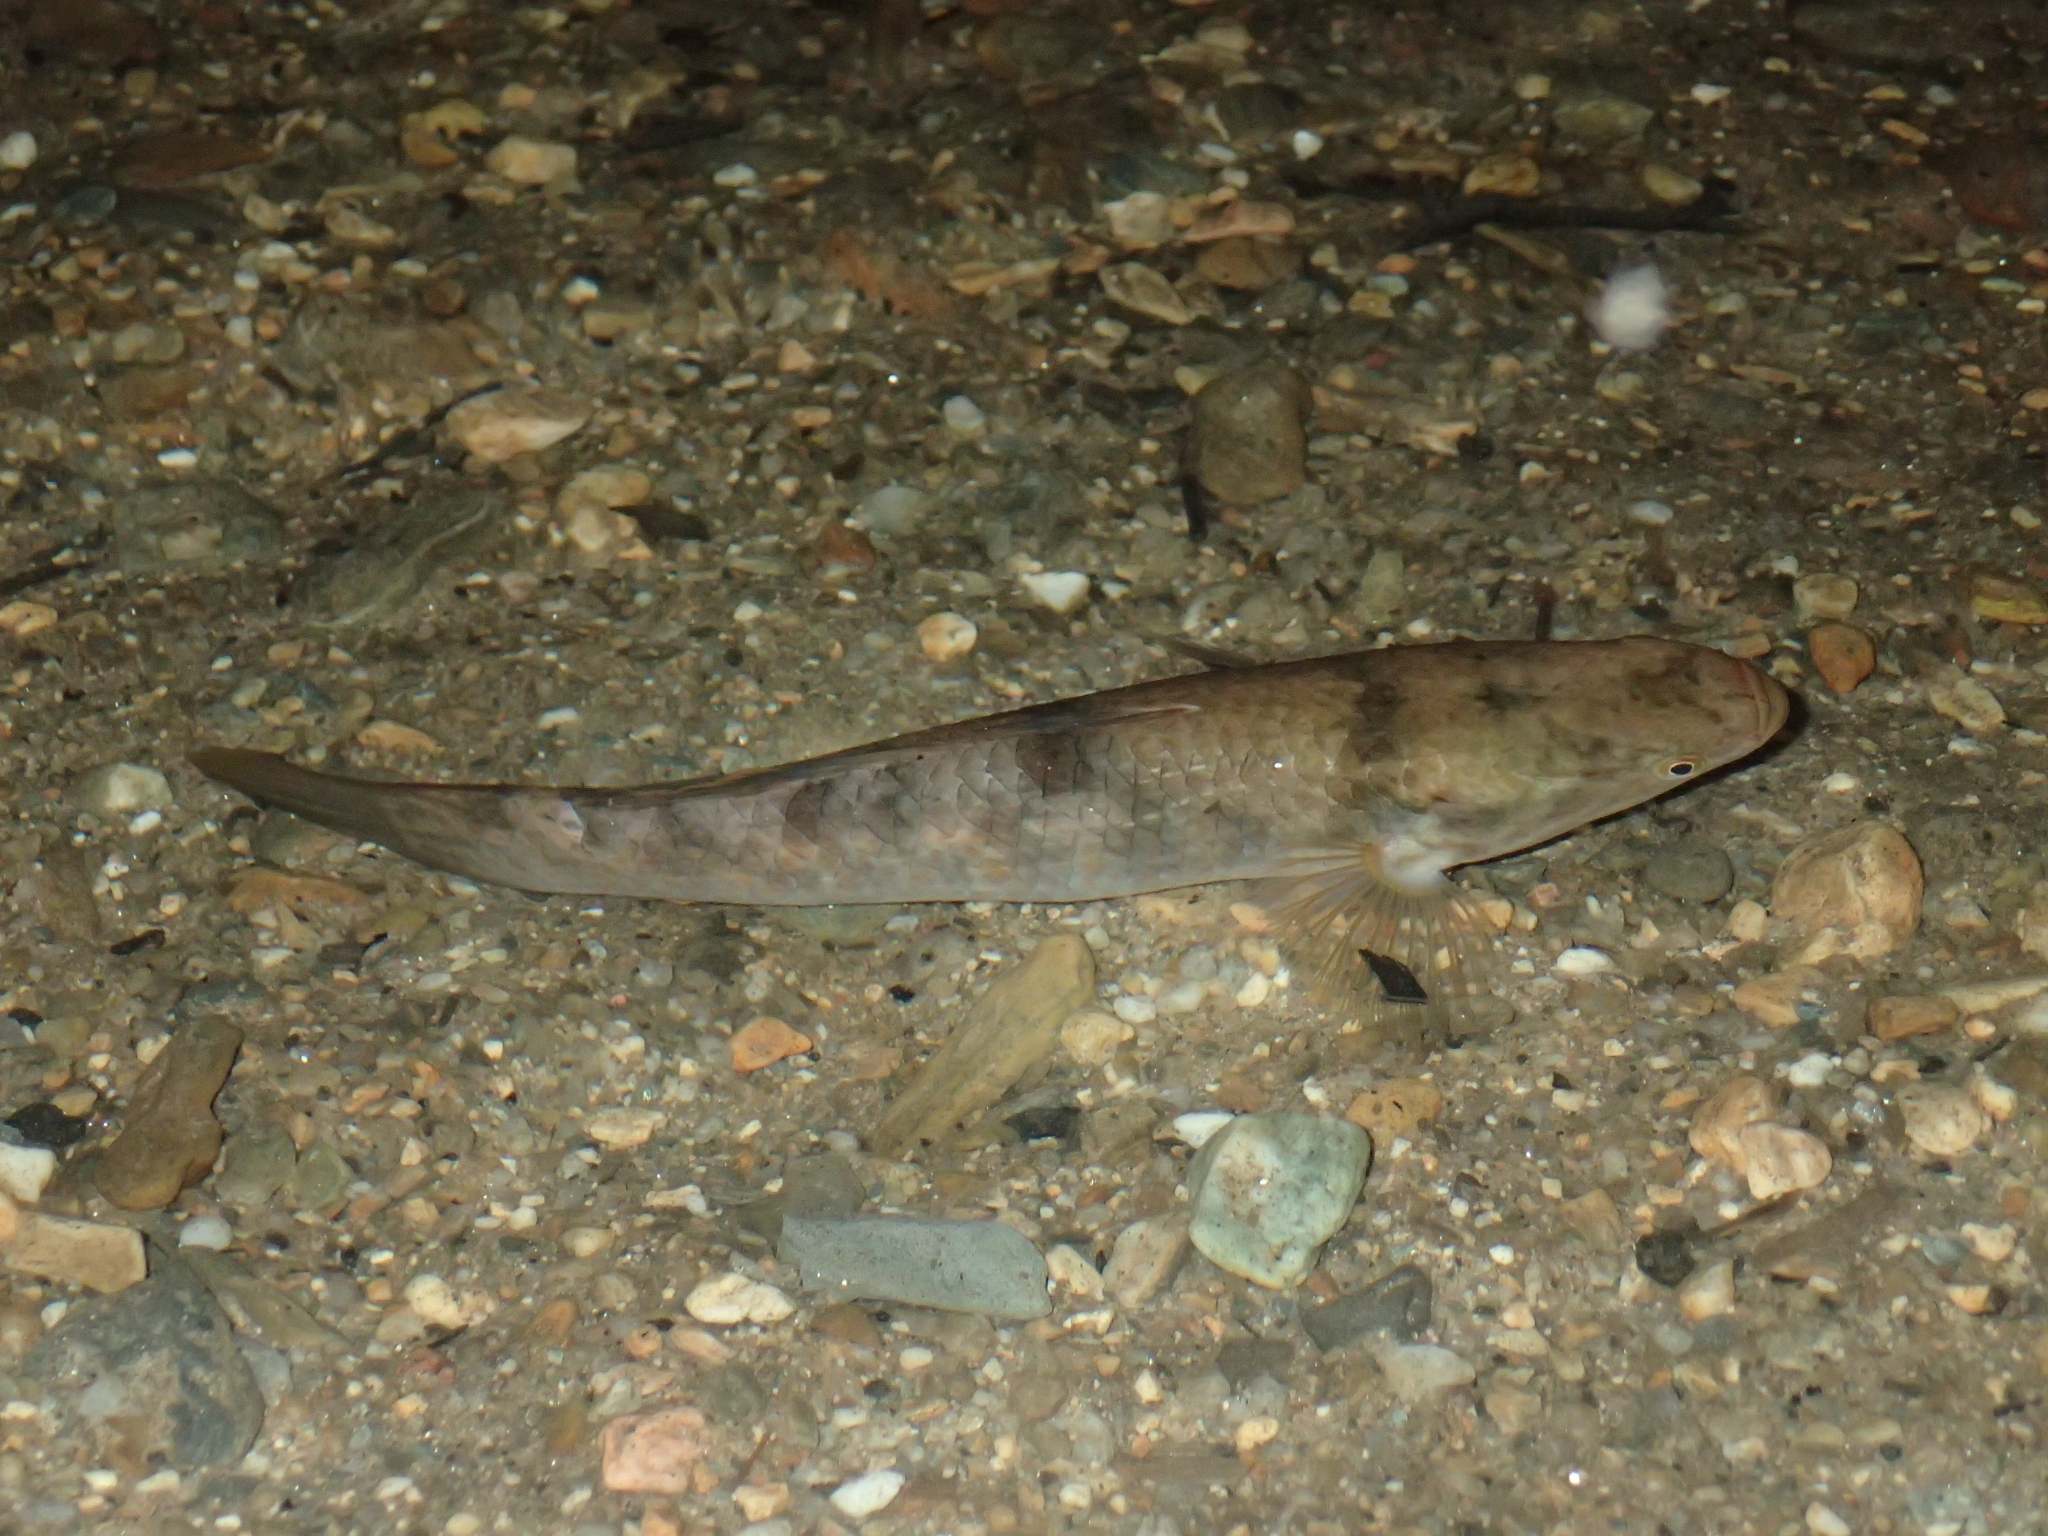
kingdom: Animalia
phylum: Chordata
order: Perciformes
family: Eleotridae
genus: Giuris
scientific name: Giuris
